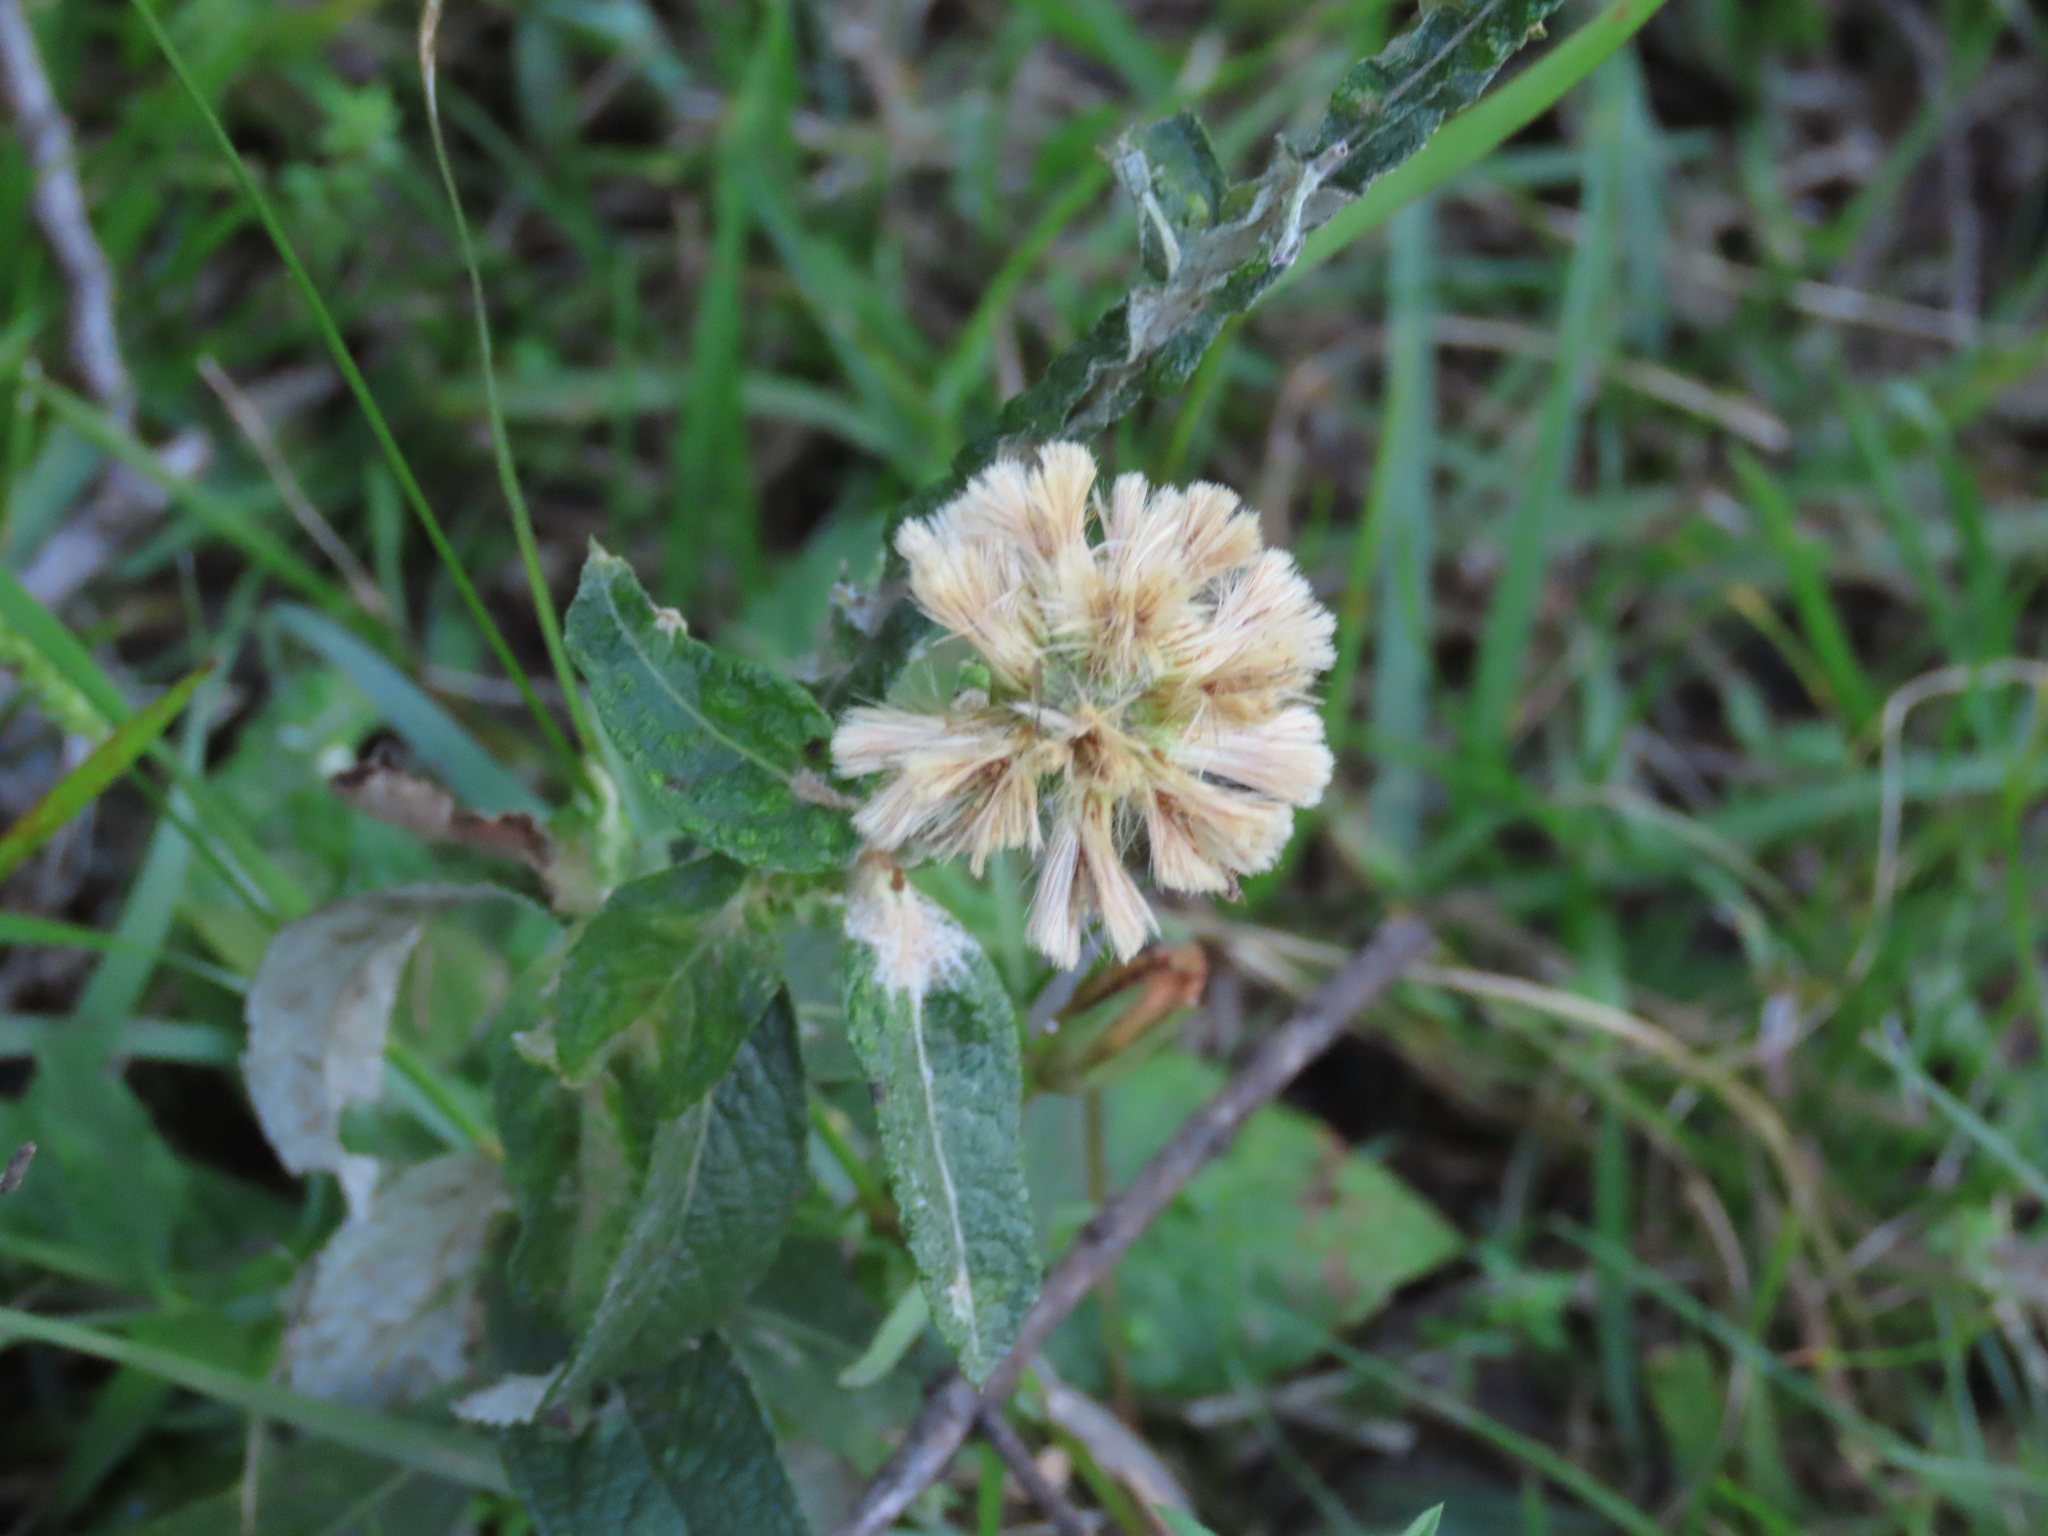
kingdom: Plantae
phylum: Tracheophyta
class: Magnoliopsida
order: Asterales
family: Asteraceae
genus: Pterocaulon
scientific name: Pterocaulon angustifolium
